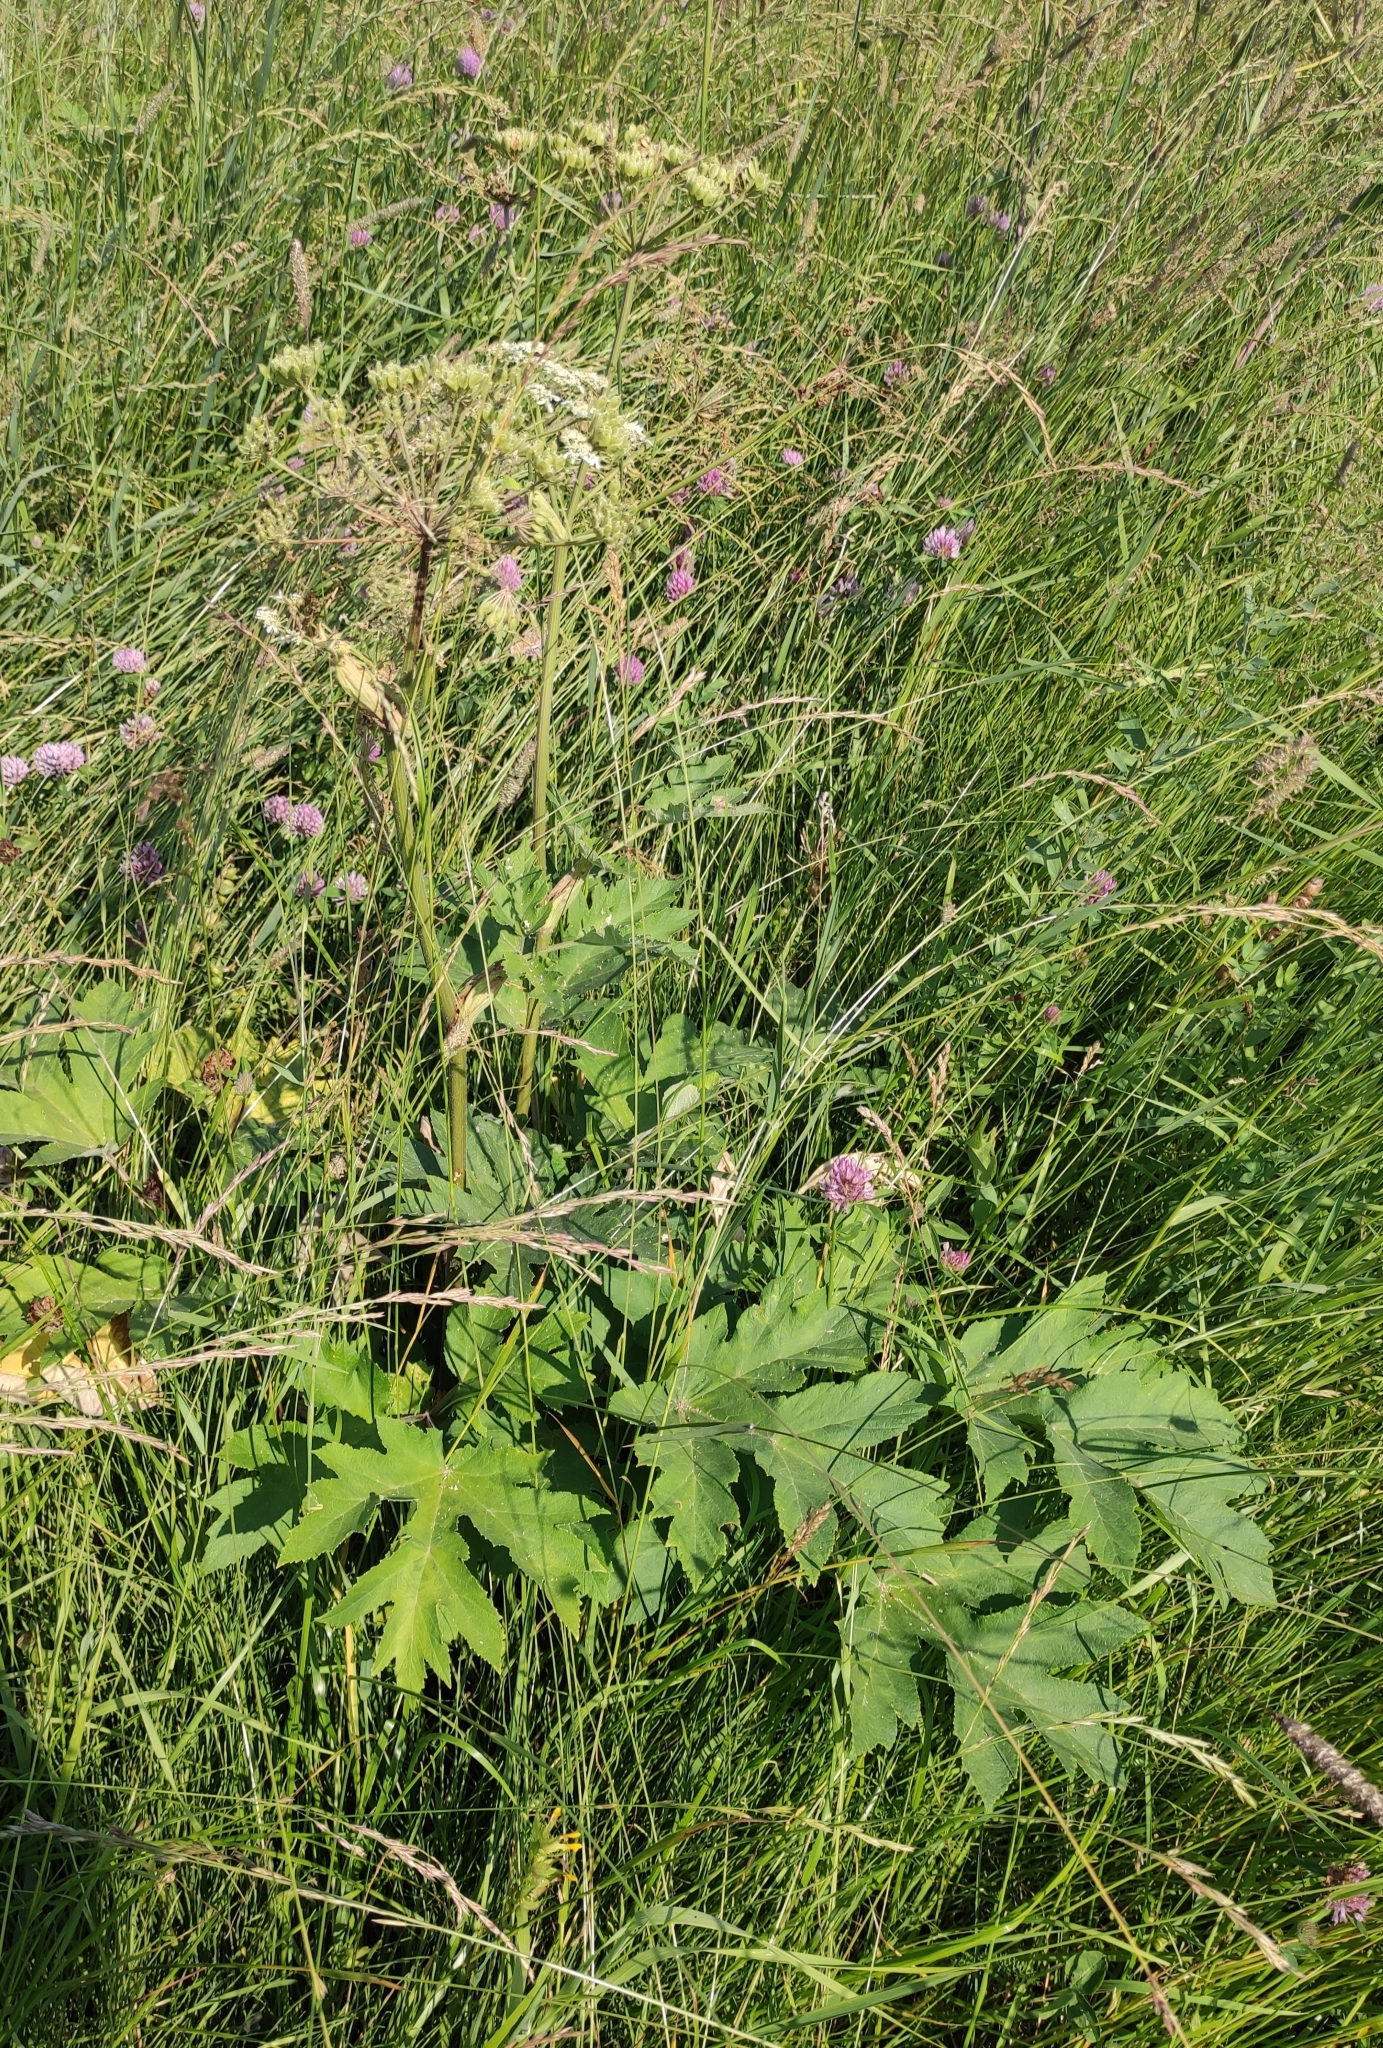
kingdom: Plantae
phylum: Tracheophyta
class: Magnoliopsida
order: Apiales
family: Apiaceae
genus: Heracleum
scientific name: Heracleum dissectum
